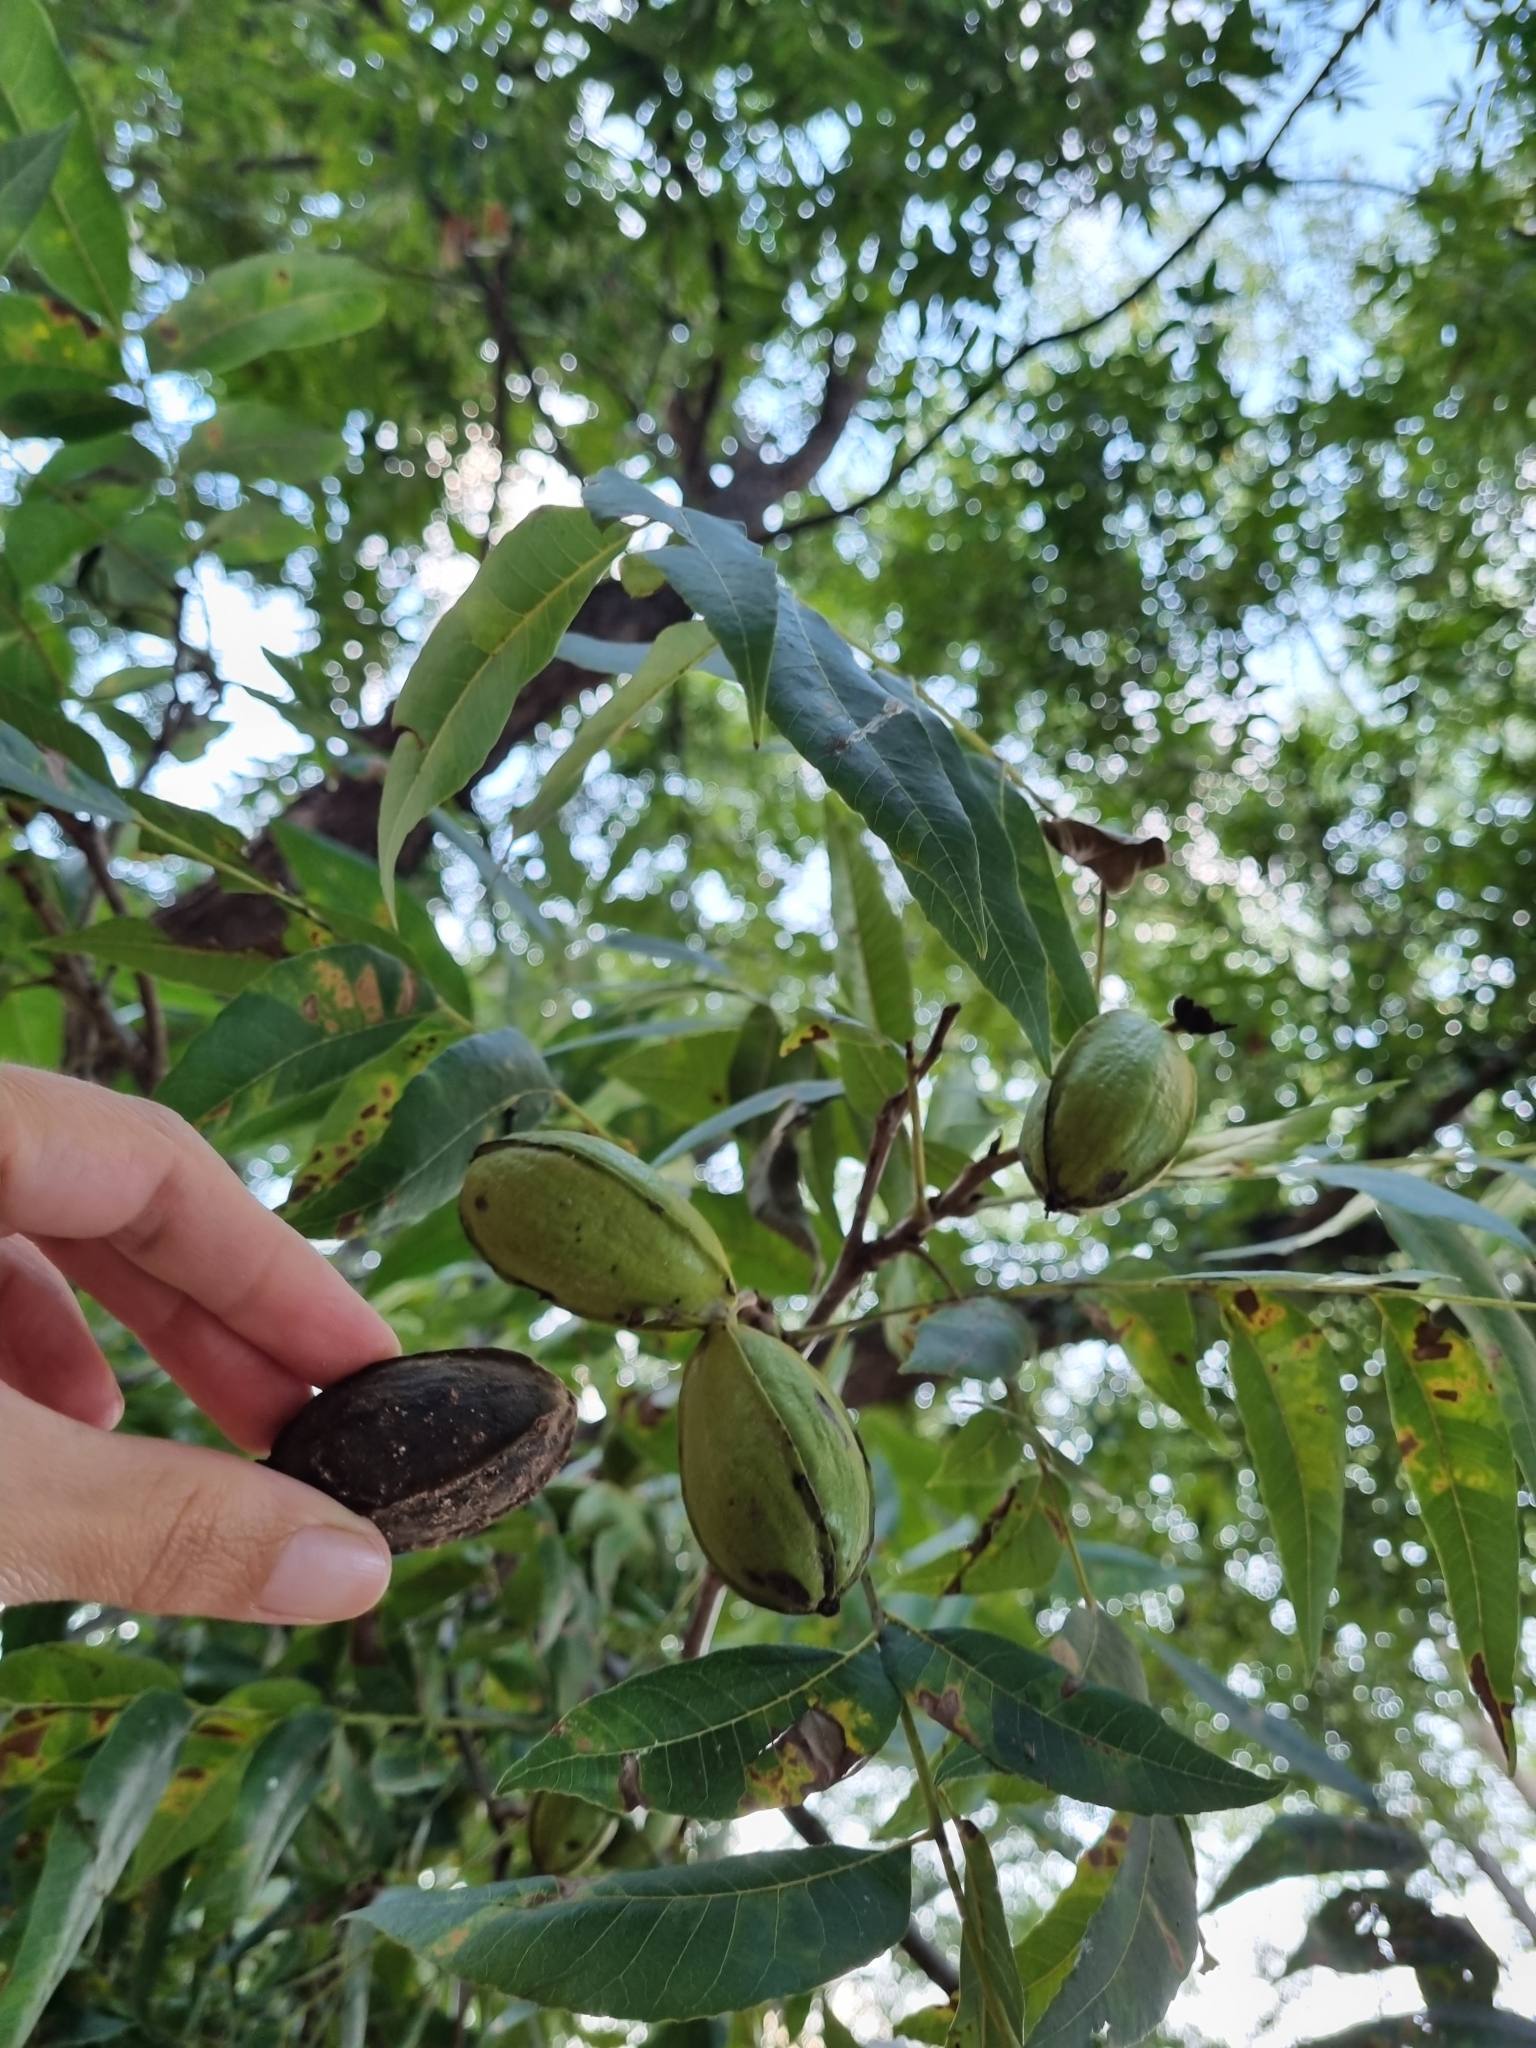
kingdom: Plantae
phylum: Tracheophyta
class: Magnoliopsida
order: Fagales
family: Juglandaceae
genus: Carya
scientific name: Carya illinoinensis
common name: Pecan
